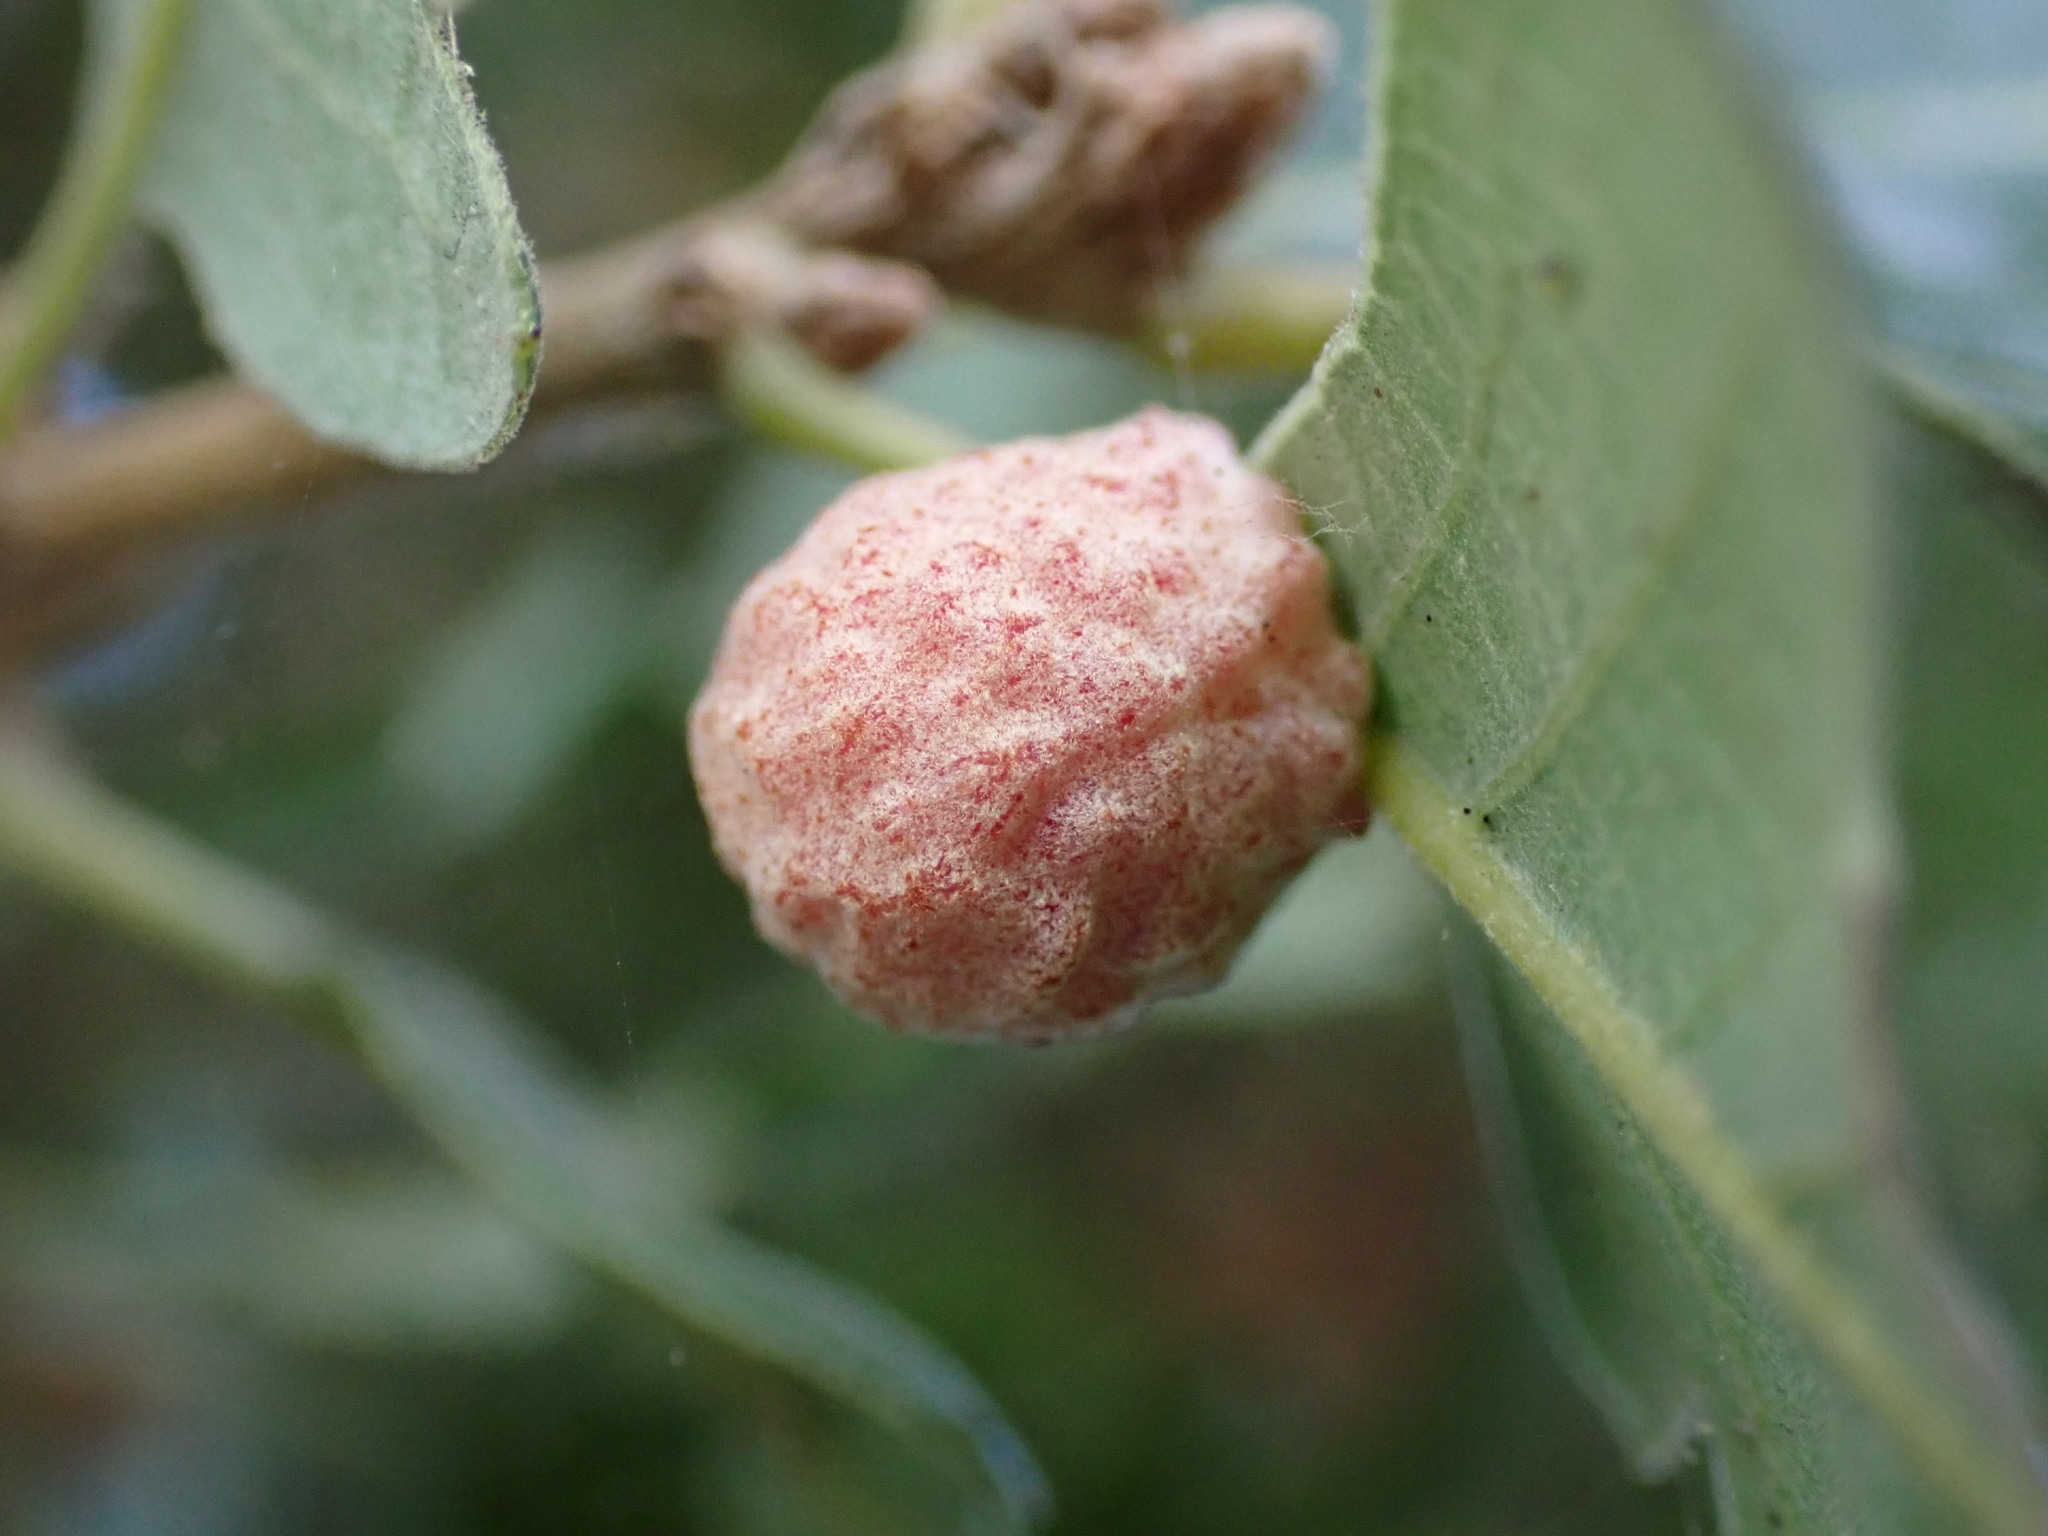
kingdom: Animalia
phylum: Arthropoda
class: Insecta
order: Hymenoptera
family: Cynipidae
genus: Cynips
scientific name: Cynips conspicua
